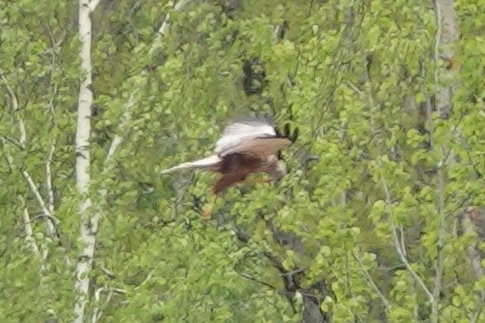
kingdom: Animalia
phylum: Chordata
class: Aves
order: Accipitriformes
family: Accipitridae
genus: Circus
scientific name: Circus aeruginosus
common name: Western marsh harrier
